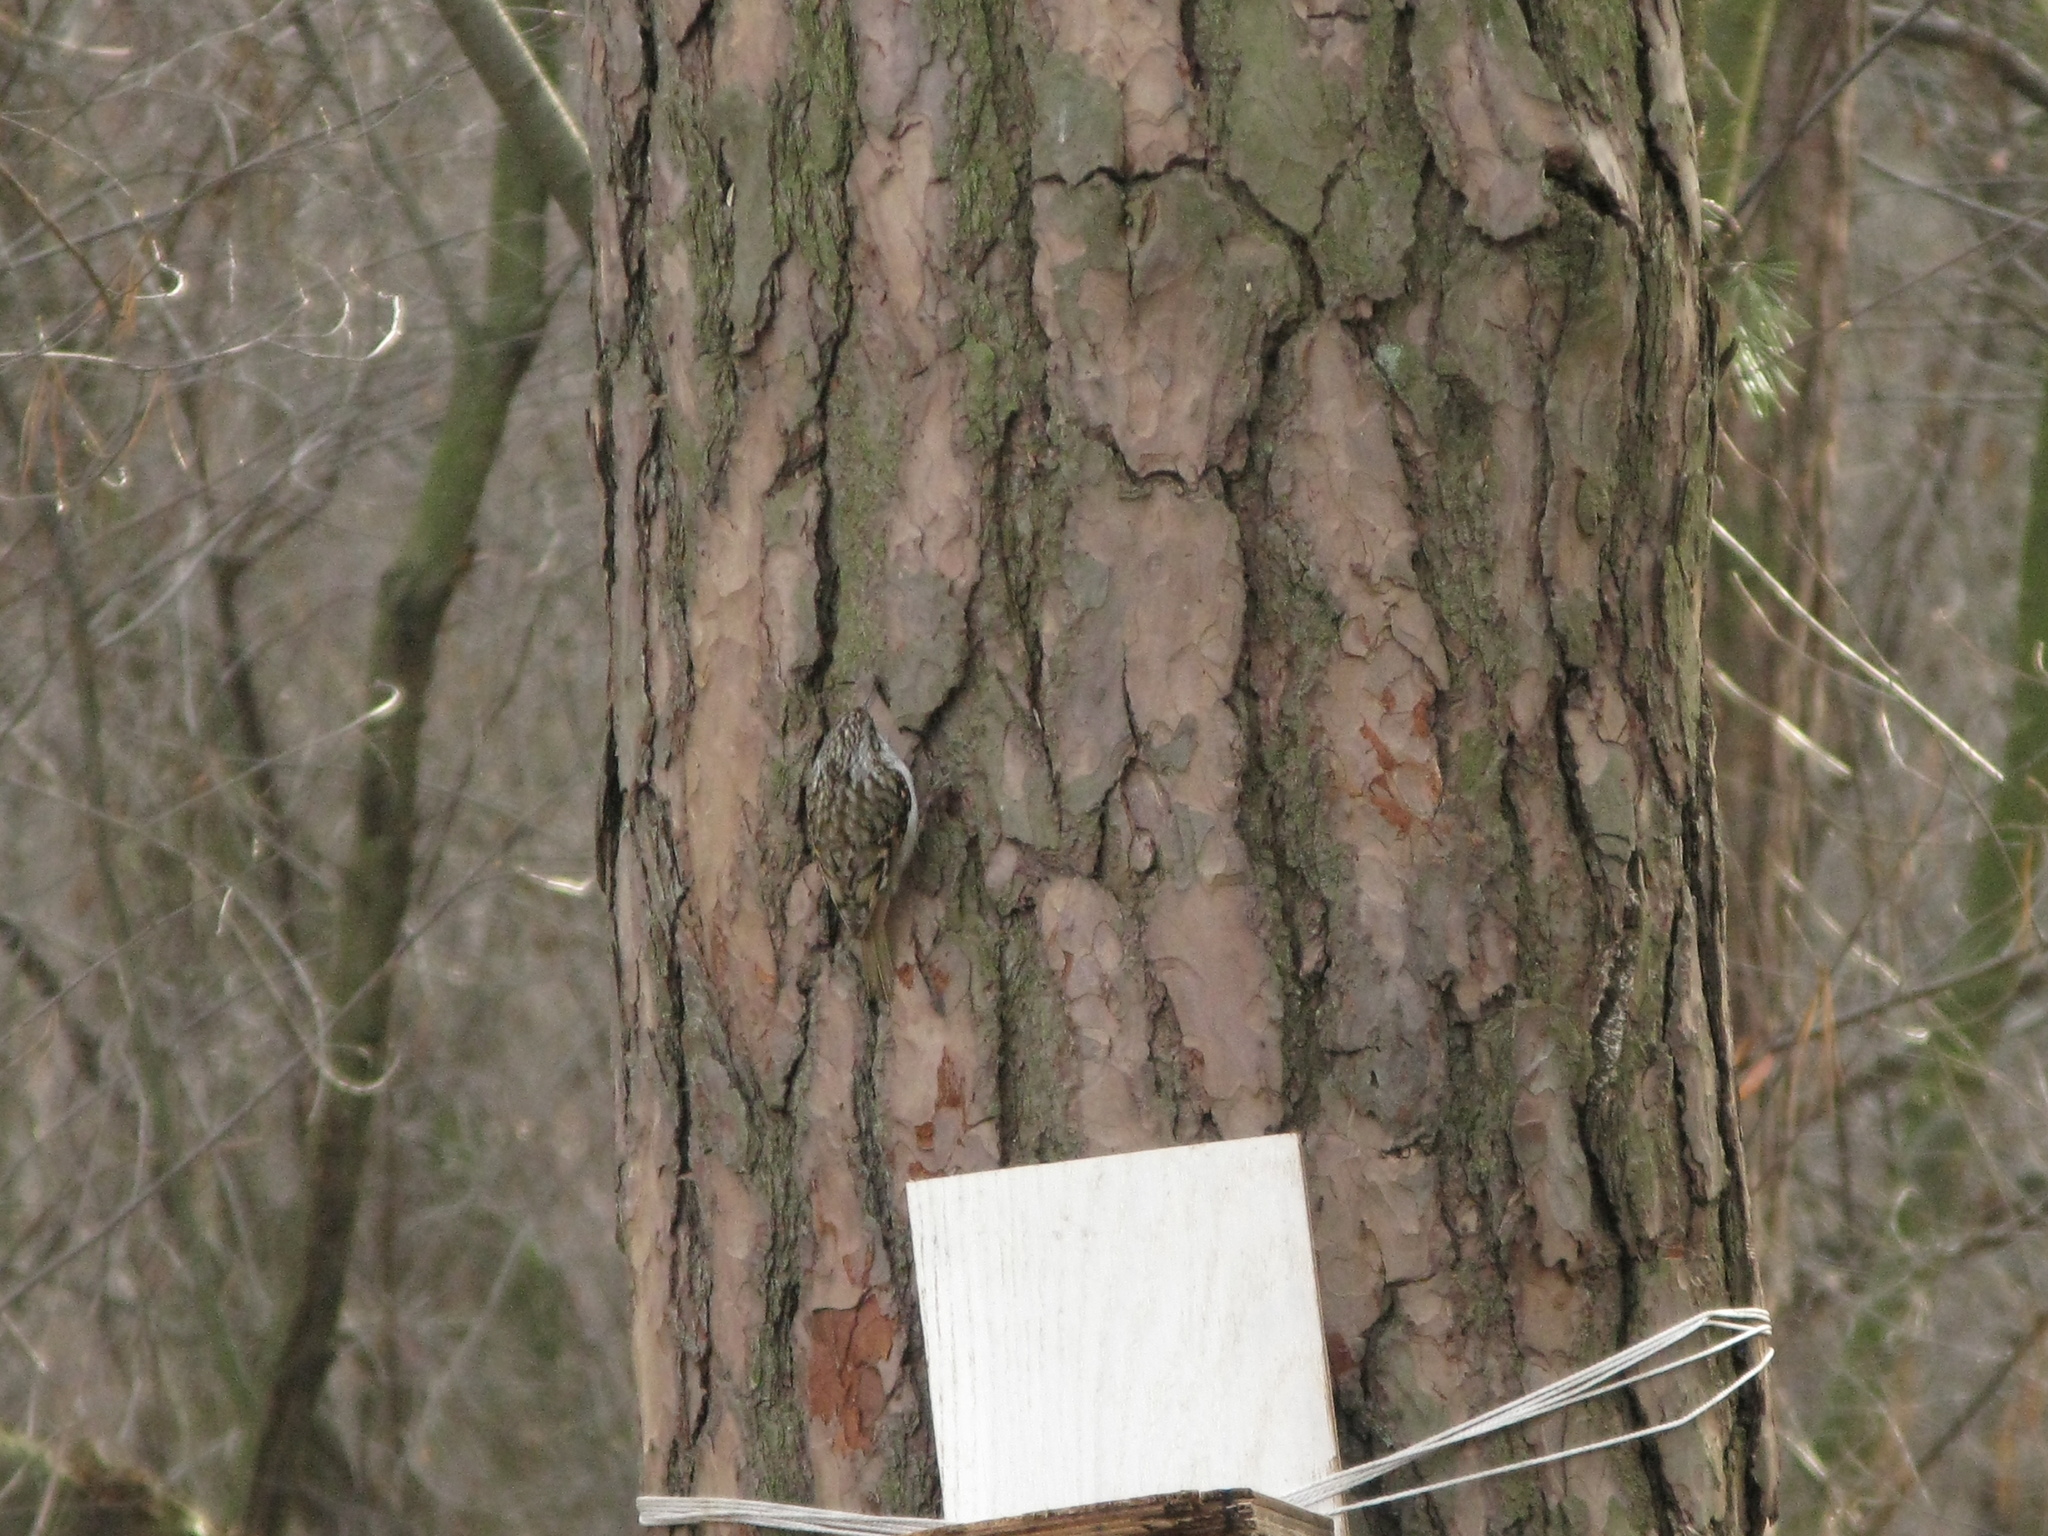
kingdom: Animalia
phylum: Chordata
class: Aves
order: Passeriformes
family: Certhiidae
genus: Certhia
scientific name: Certhia familiaris
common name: Eurasian treecreeper
